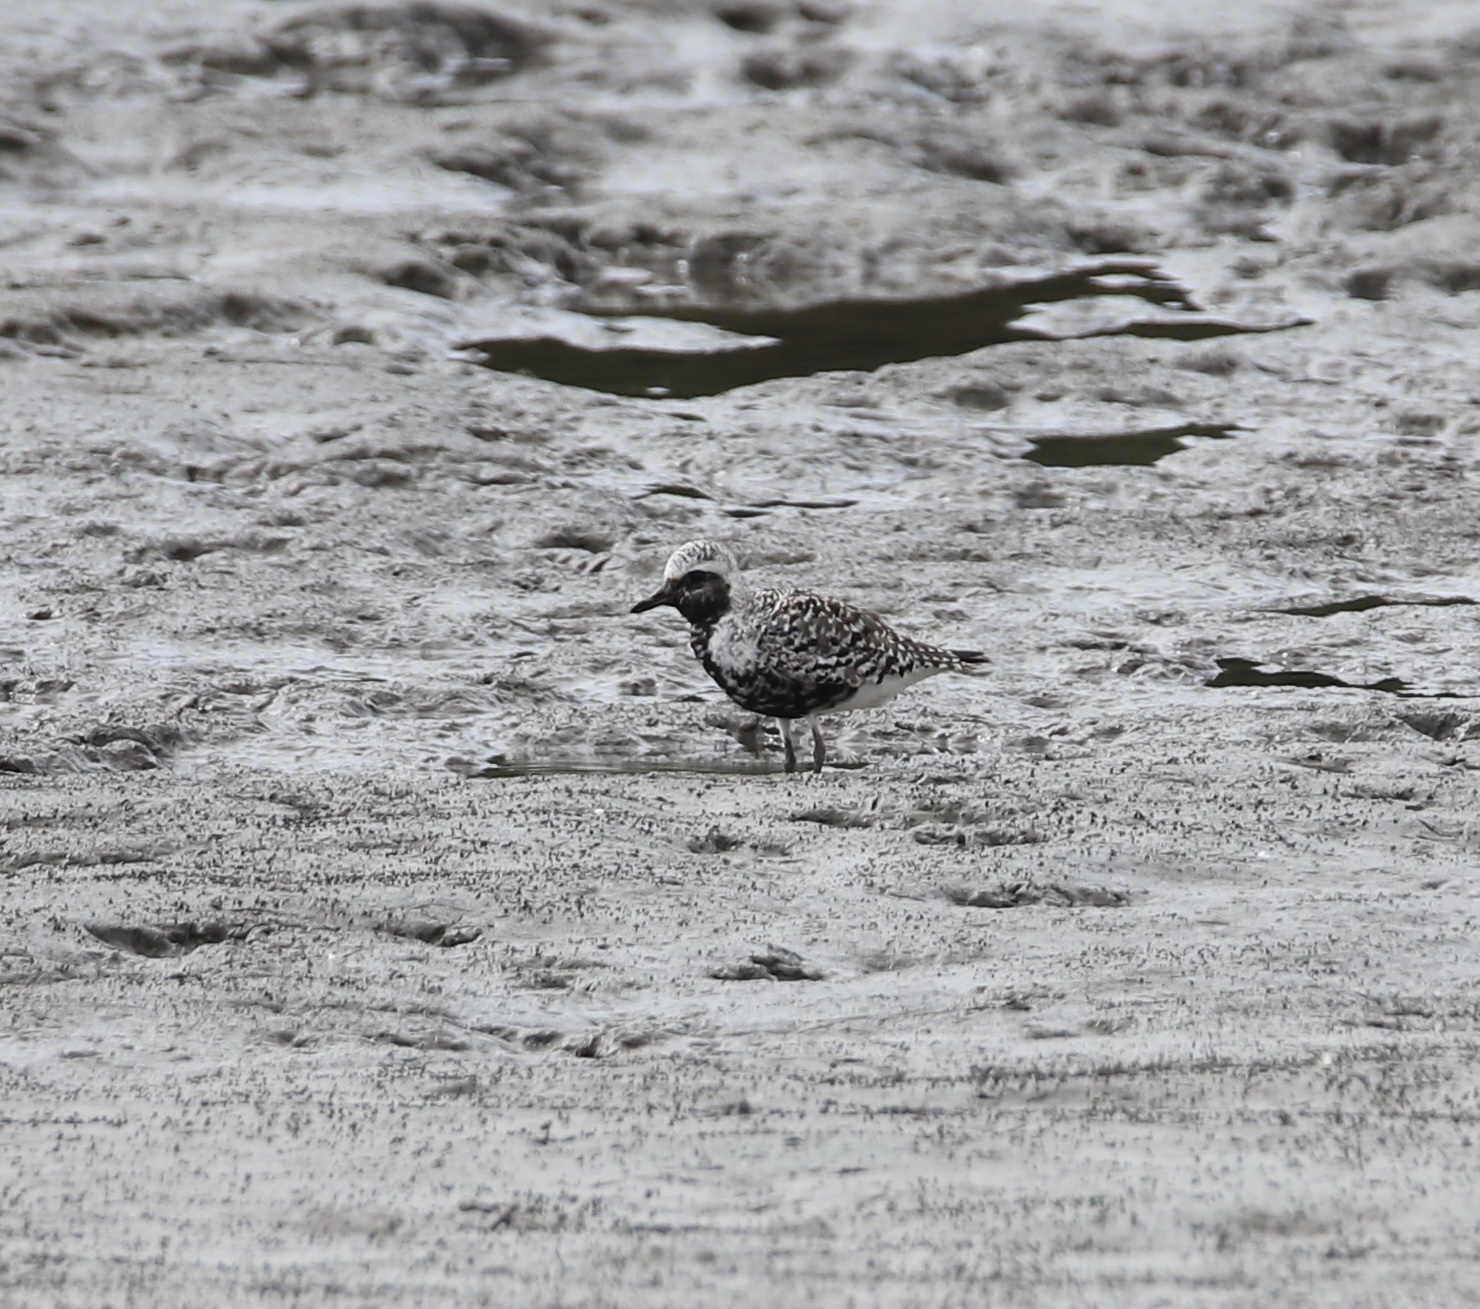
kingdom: Animalia
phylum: Chordata
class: Aves
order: Charadriiformes
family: Charadriidae
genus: Pluvialis
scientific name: Pluvialis squatarola
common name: Grey plover
